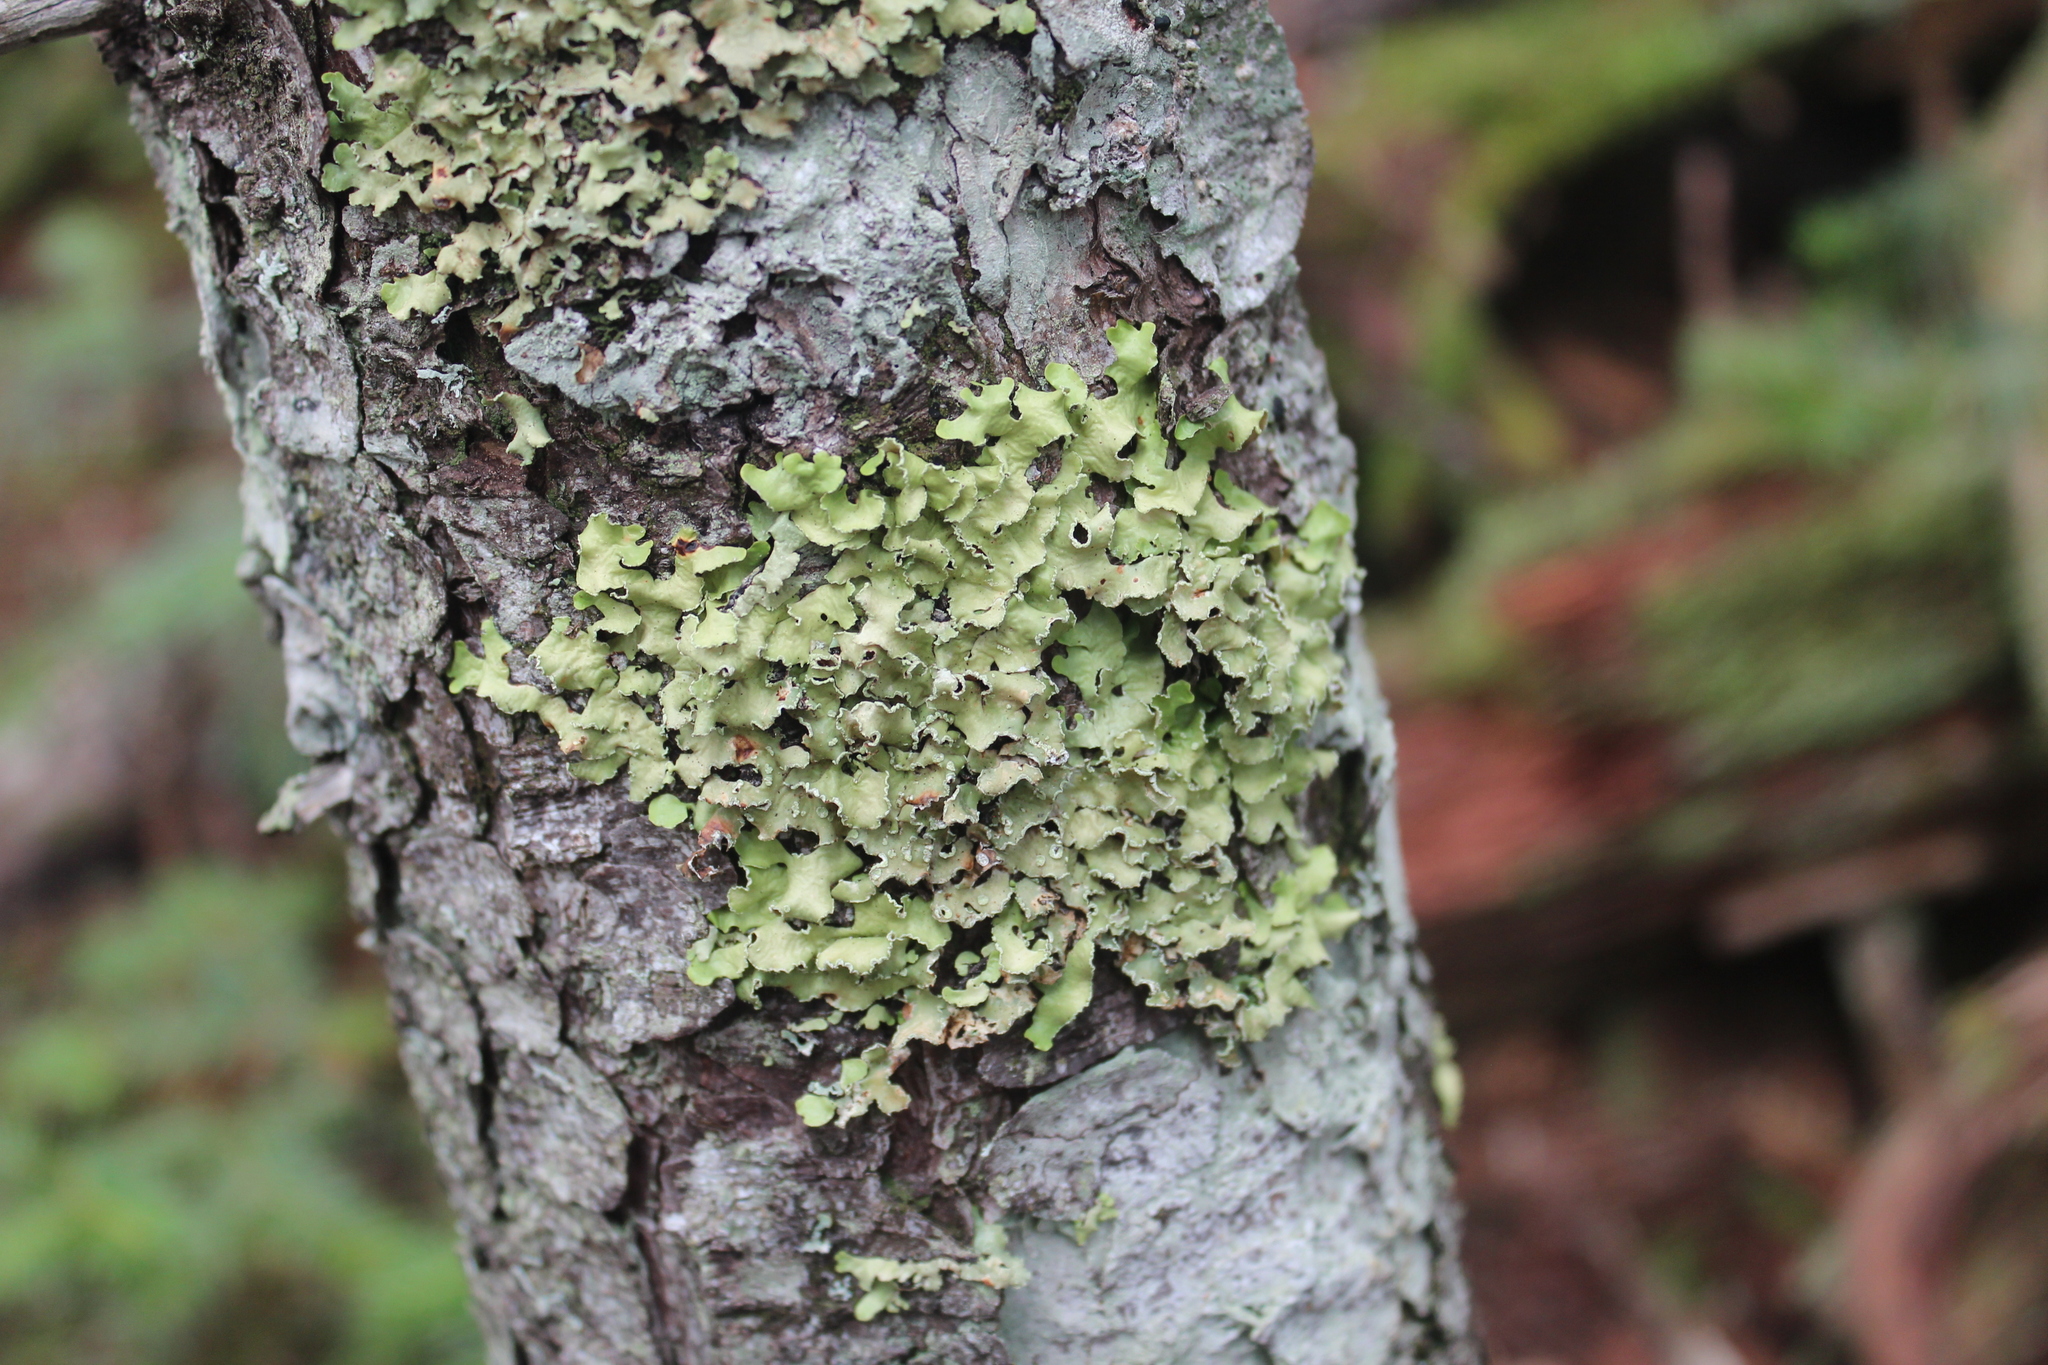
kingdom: Fungi
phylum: Ascomycota
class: Lecanoromycetes
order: Lecanorales
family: Parmeliaceae
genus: Usnocetraria
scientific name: Usnocetraria oakesiana
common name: Yellow ribbon lichen
